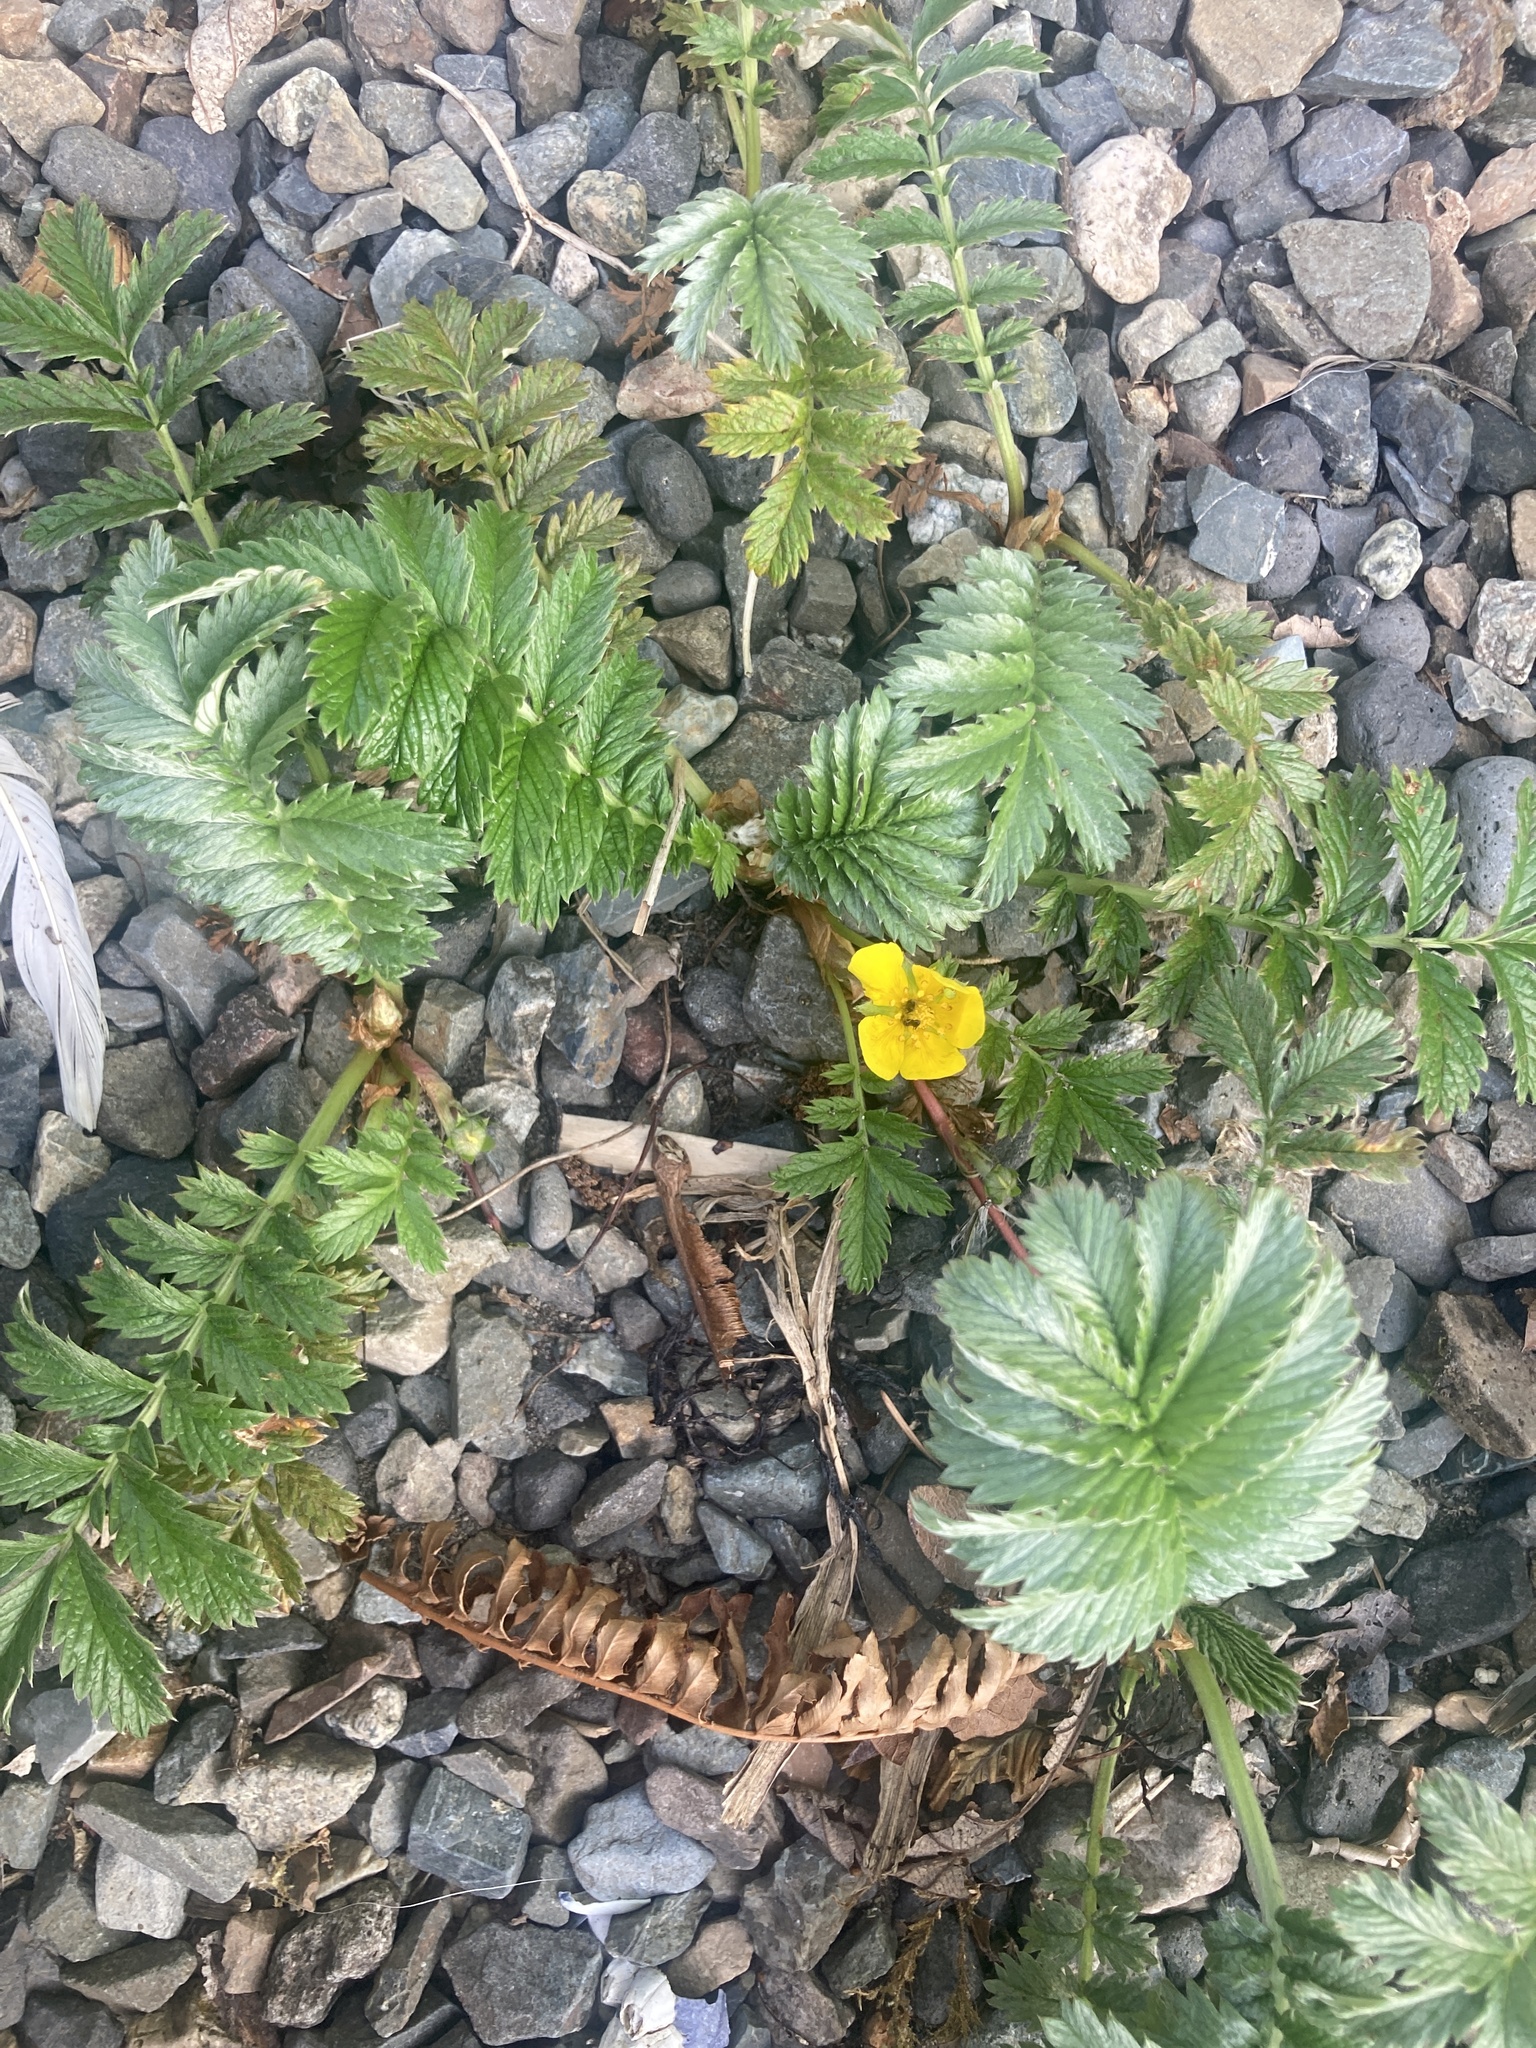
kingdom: Plantae
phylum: Tracheophyta
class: Magnoliopsida
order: Rosales
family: Rosaceae
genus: Argentina
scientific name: Argentina anserina
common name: Common silverweed
